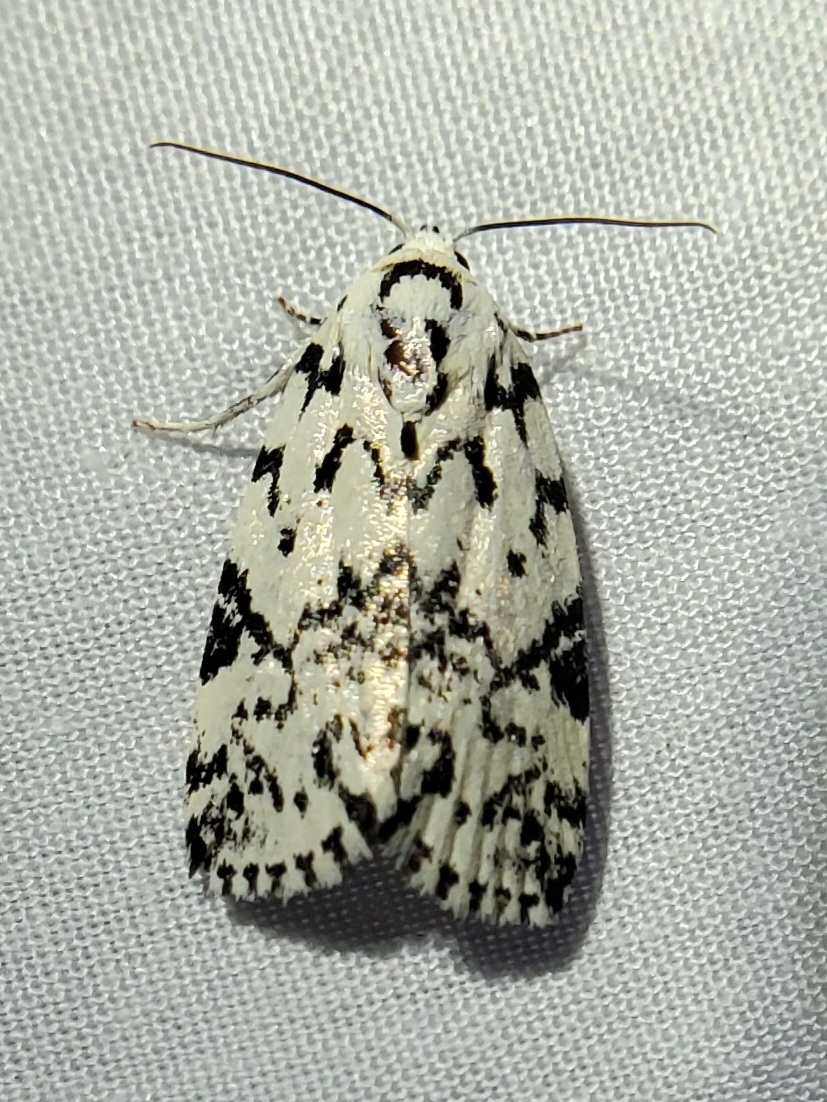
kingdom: Animalia
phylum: Arthropoda
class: Insecta
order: Lepidoptera
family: Noctuidae
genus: Polygrammate
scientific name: Polygrammate hebraeicum
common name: Hebrew moth
